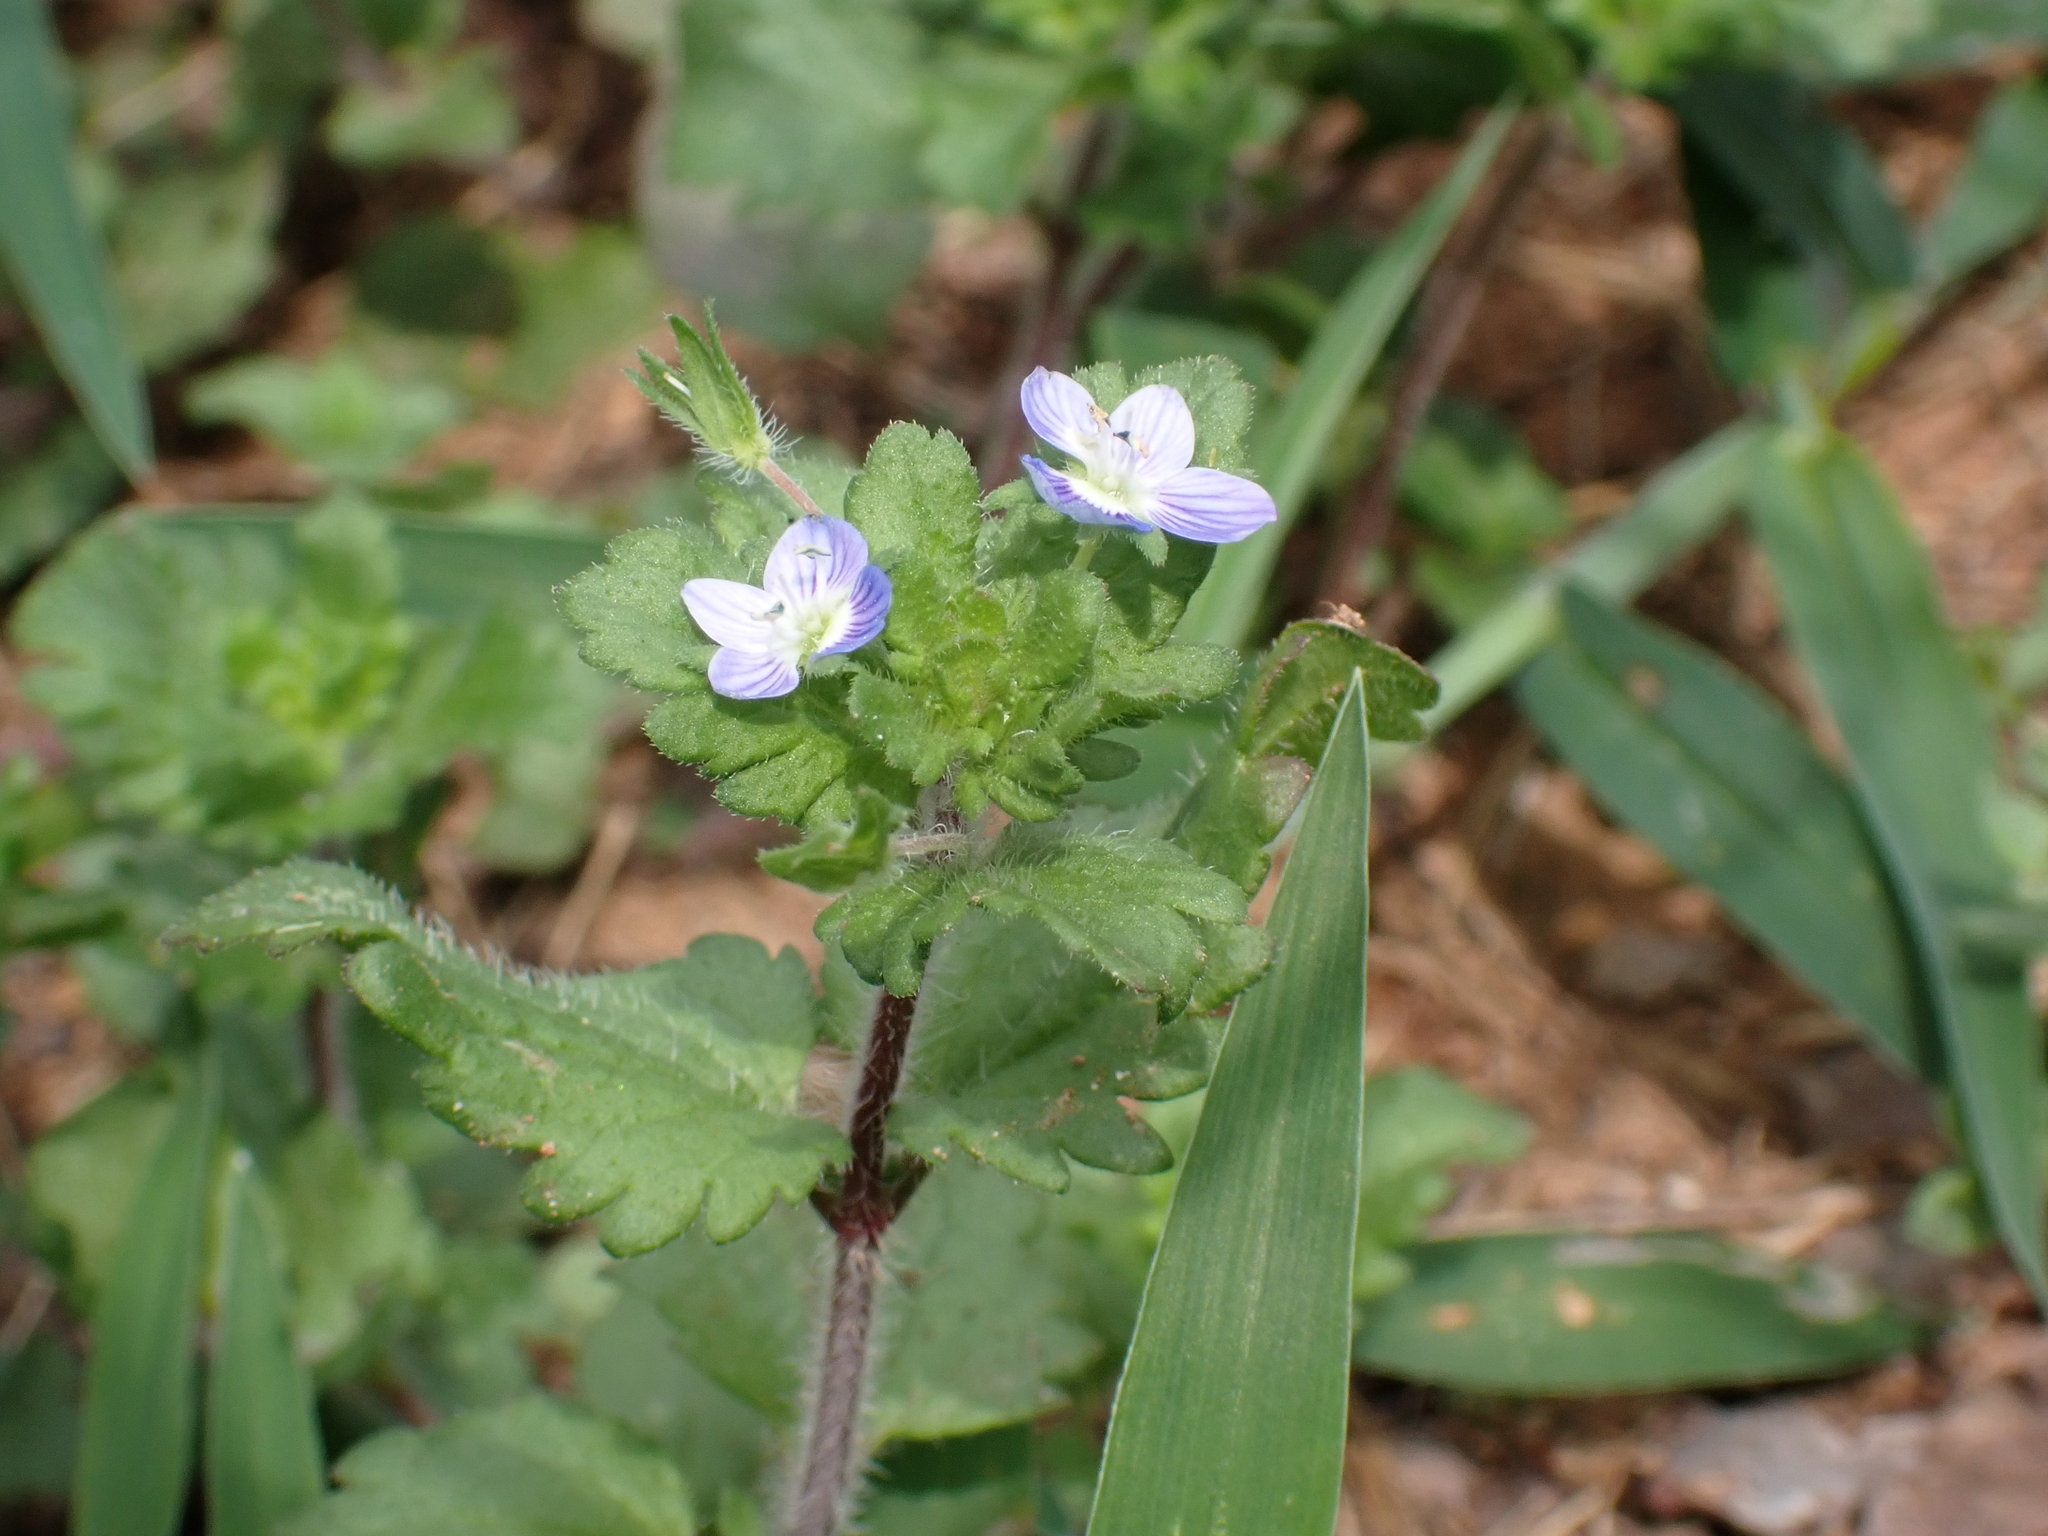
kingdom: Plantae
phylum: Tracheophyta
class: Magnoliopsida
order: Lamiales
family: Plantaginaceae
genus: Veronica
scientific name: Veronica persica
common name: Common field-speedwell
